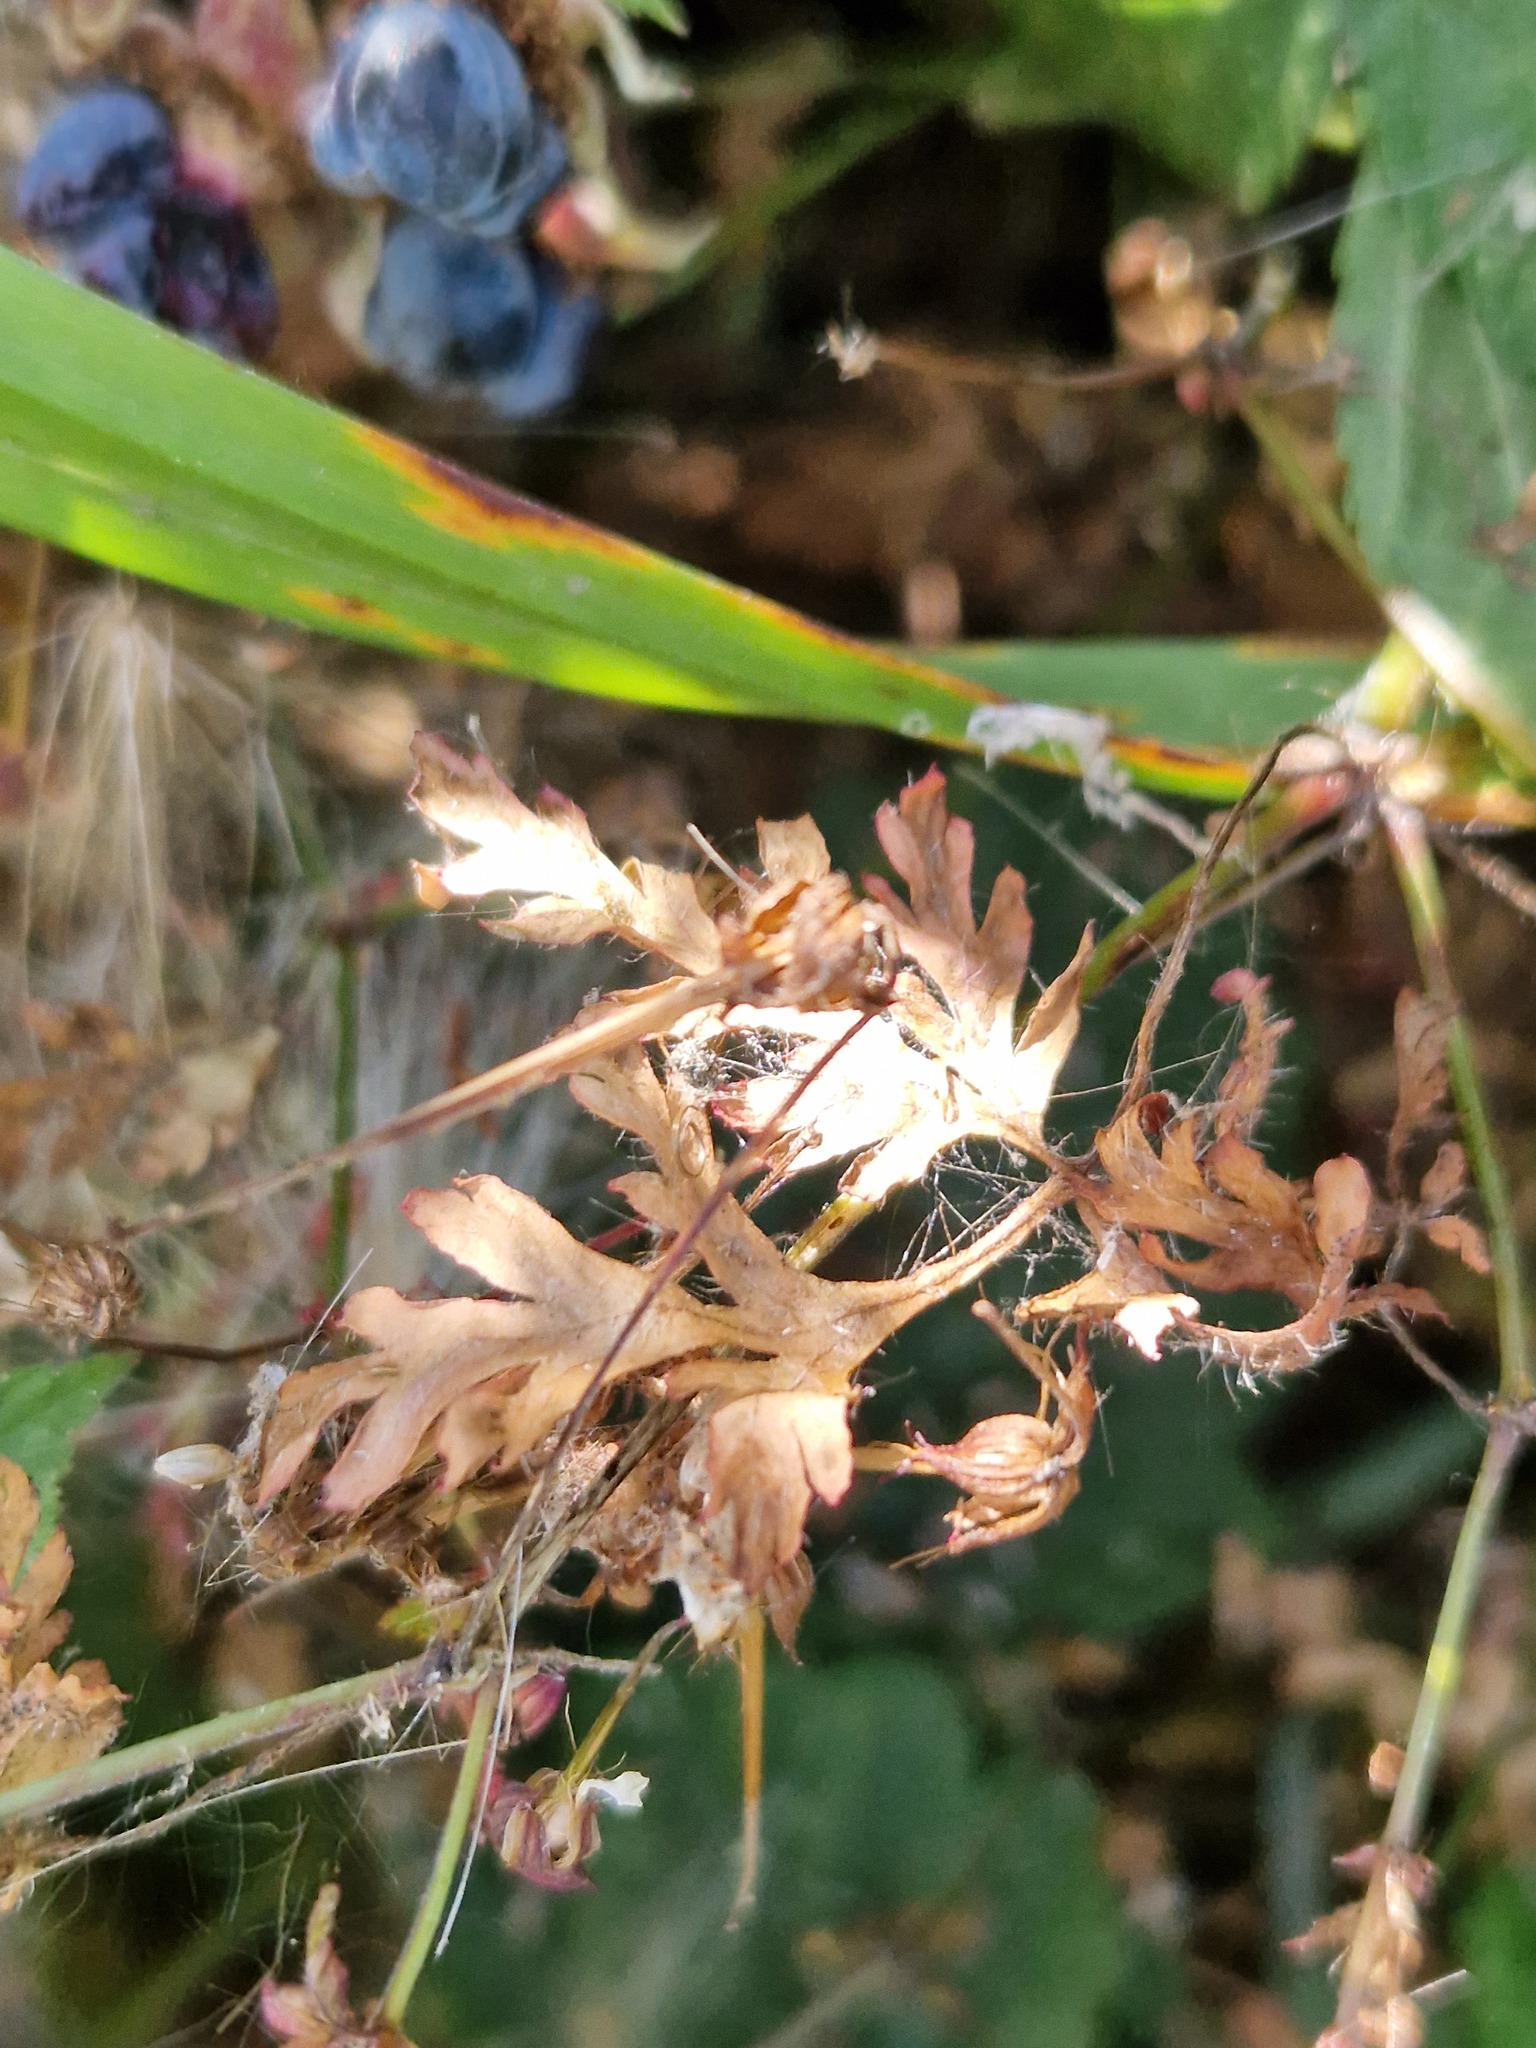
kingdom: Plantae
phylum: Tracheophyta
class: Magnoliopsida
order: Geraniales
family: Geraniaceae
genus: Geranium
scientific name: Geranium robertianum
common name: Herb-robert
